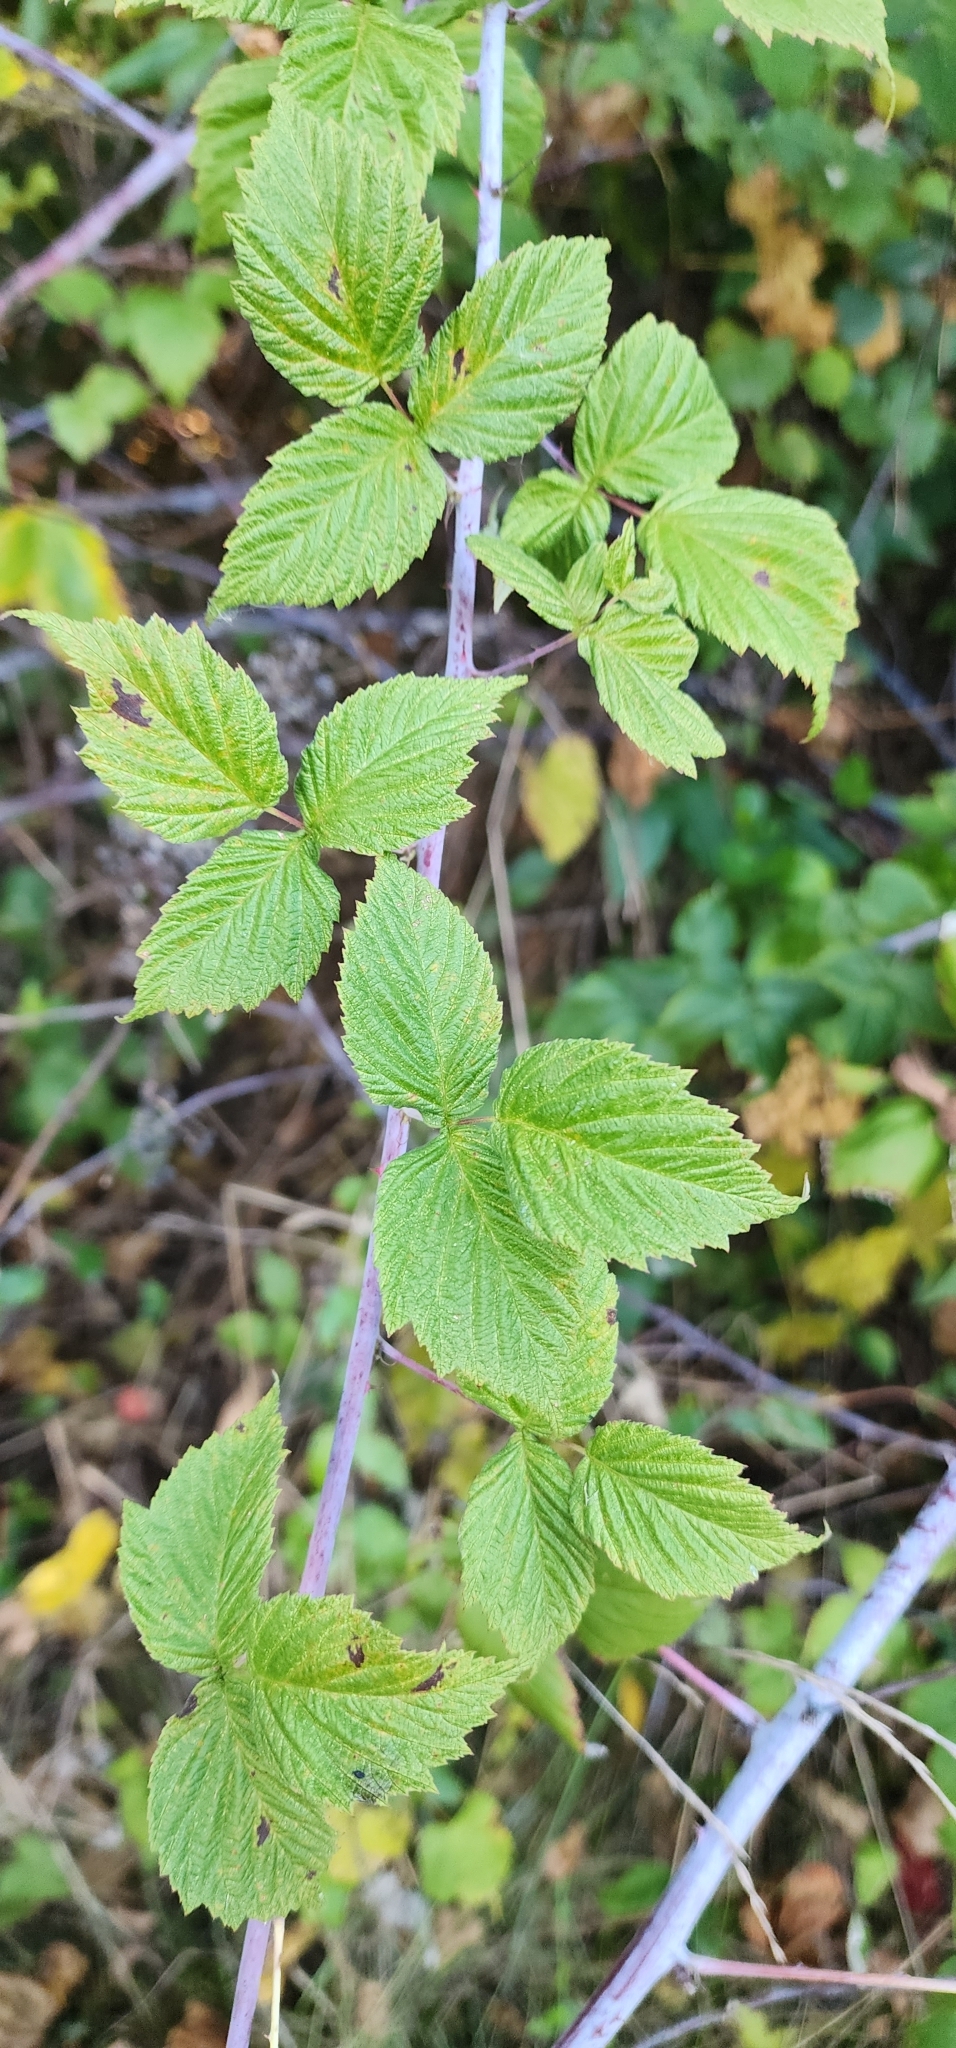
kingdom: Plantae
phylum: Tracheophyta
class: Magnoliopsida
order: Rosales
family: Rosaceae
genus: Rubus
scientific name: Rubus occidentalis
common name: Black raspberry
